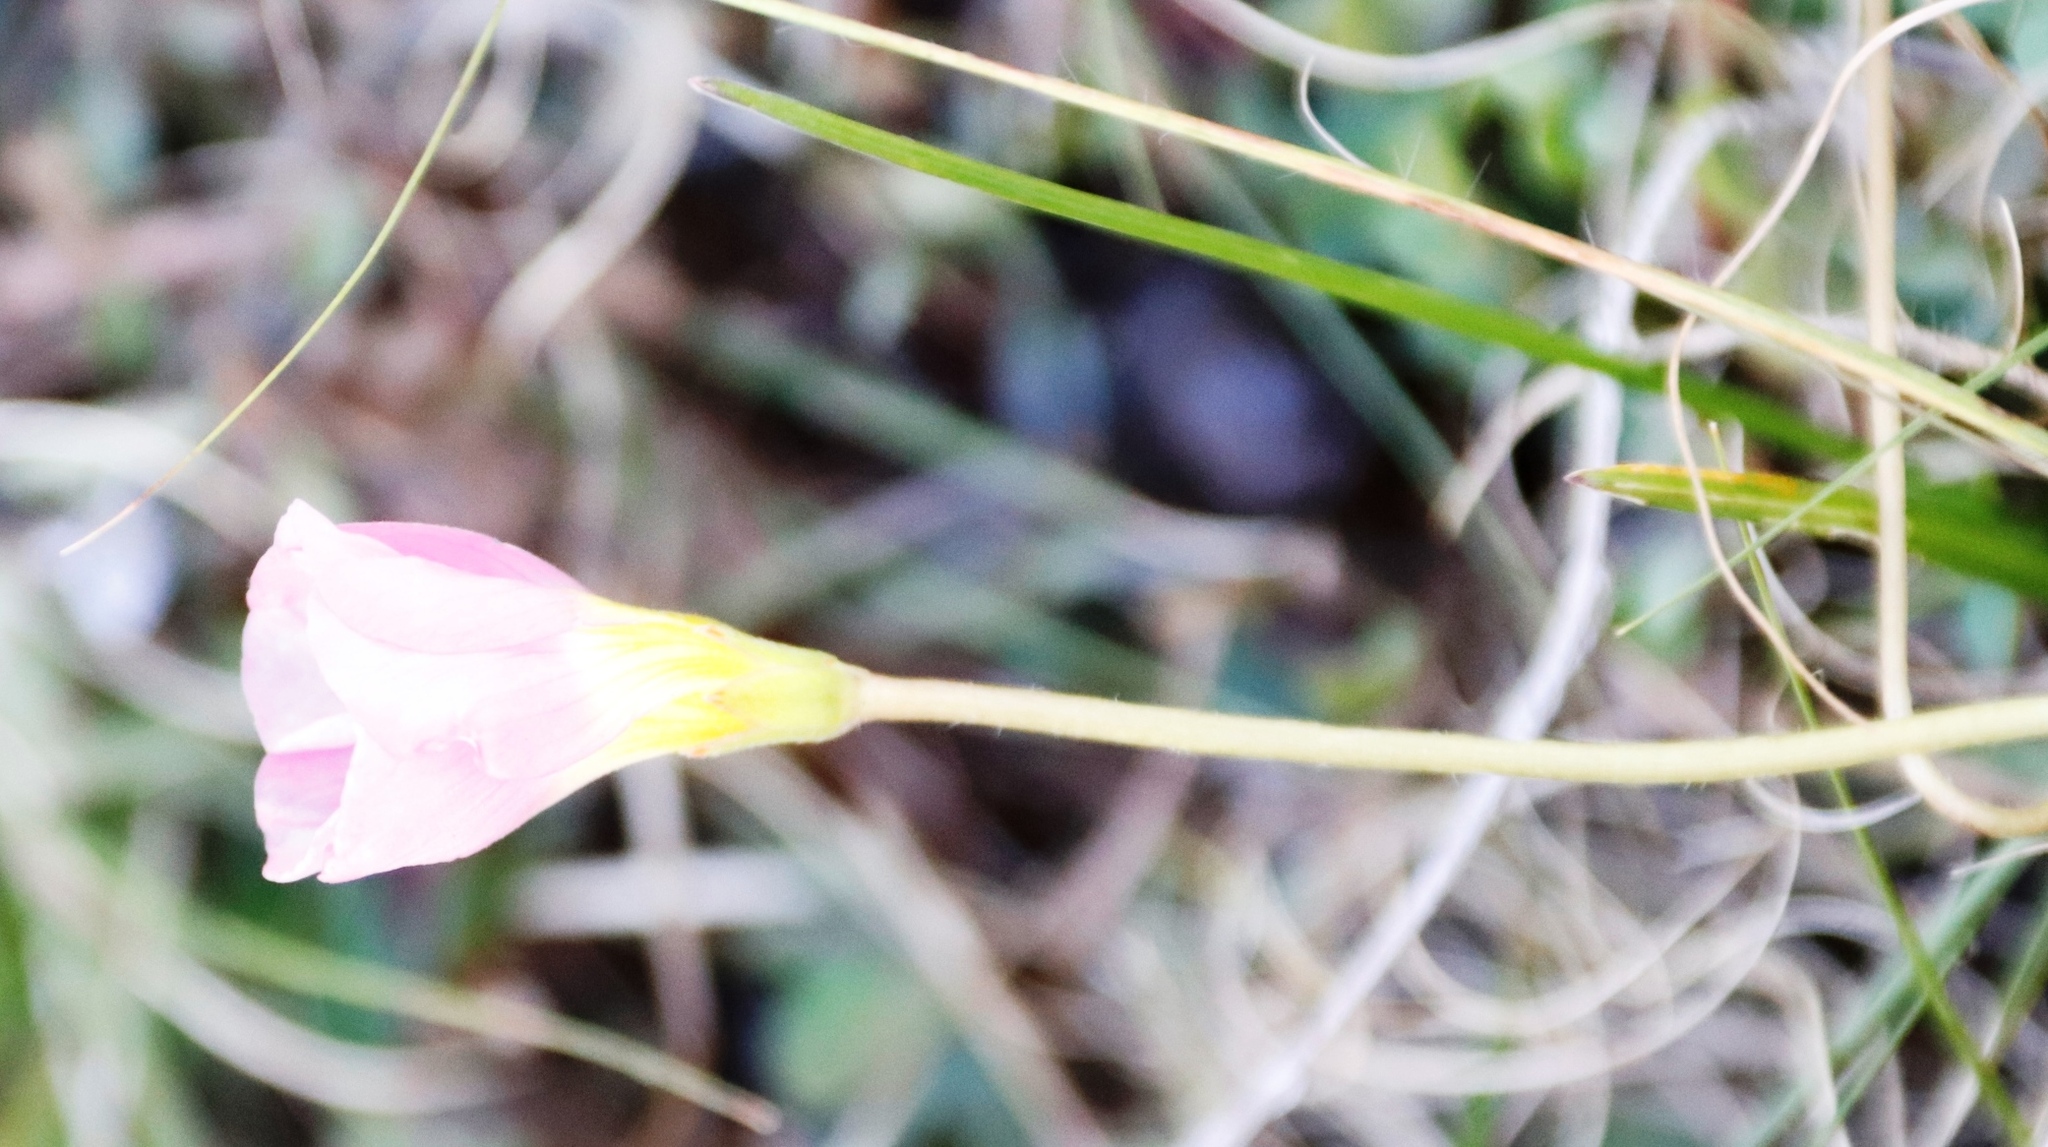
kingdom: Plantae
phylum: Tracheophyta
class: Magnoliopsida
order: Oxalidales
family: Oxalidaceae
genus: Oxalis
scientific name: Oxalis obliquifolia
